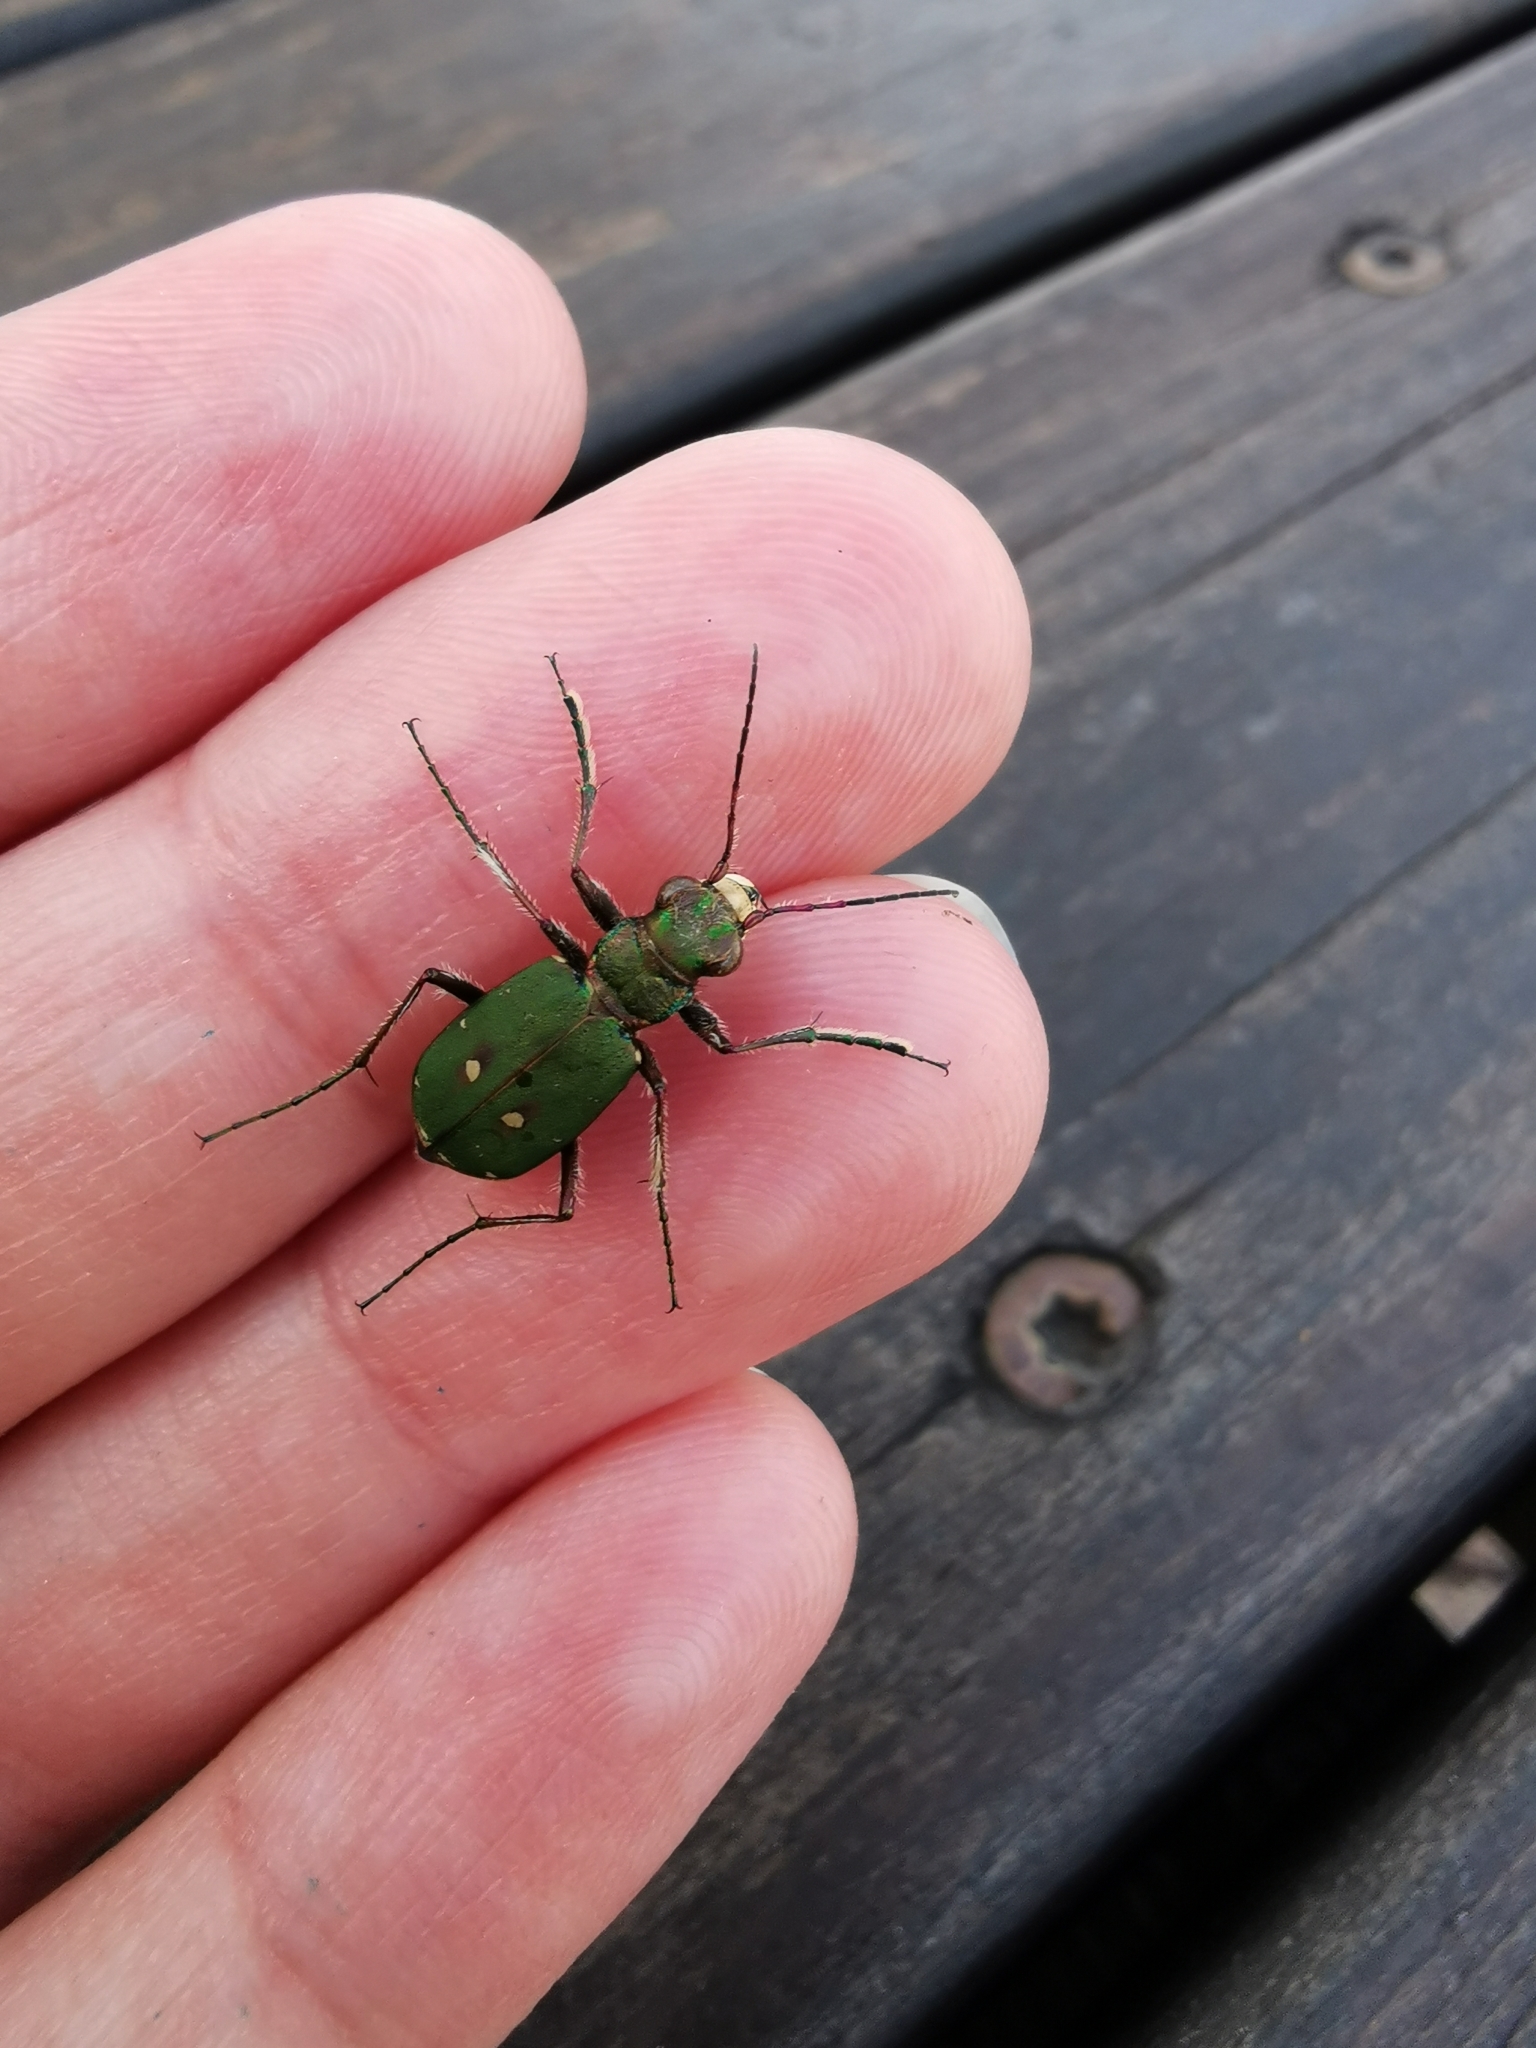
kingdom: Animalia
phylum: Arthropoda
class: Insecta
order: Coleoptera
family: Carabidae
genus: Cicindela
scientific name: Cicindela campestris
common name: Common tiger beetle
